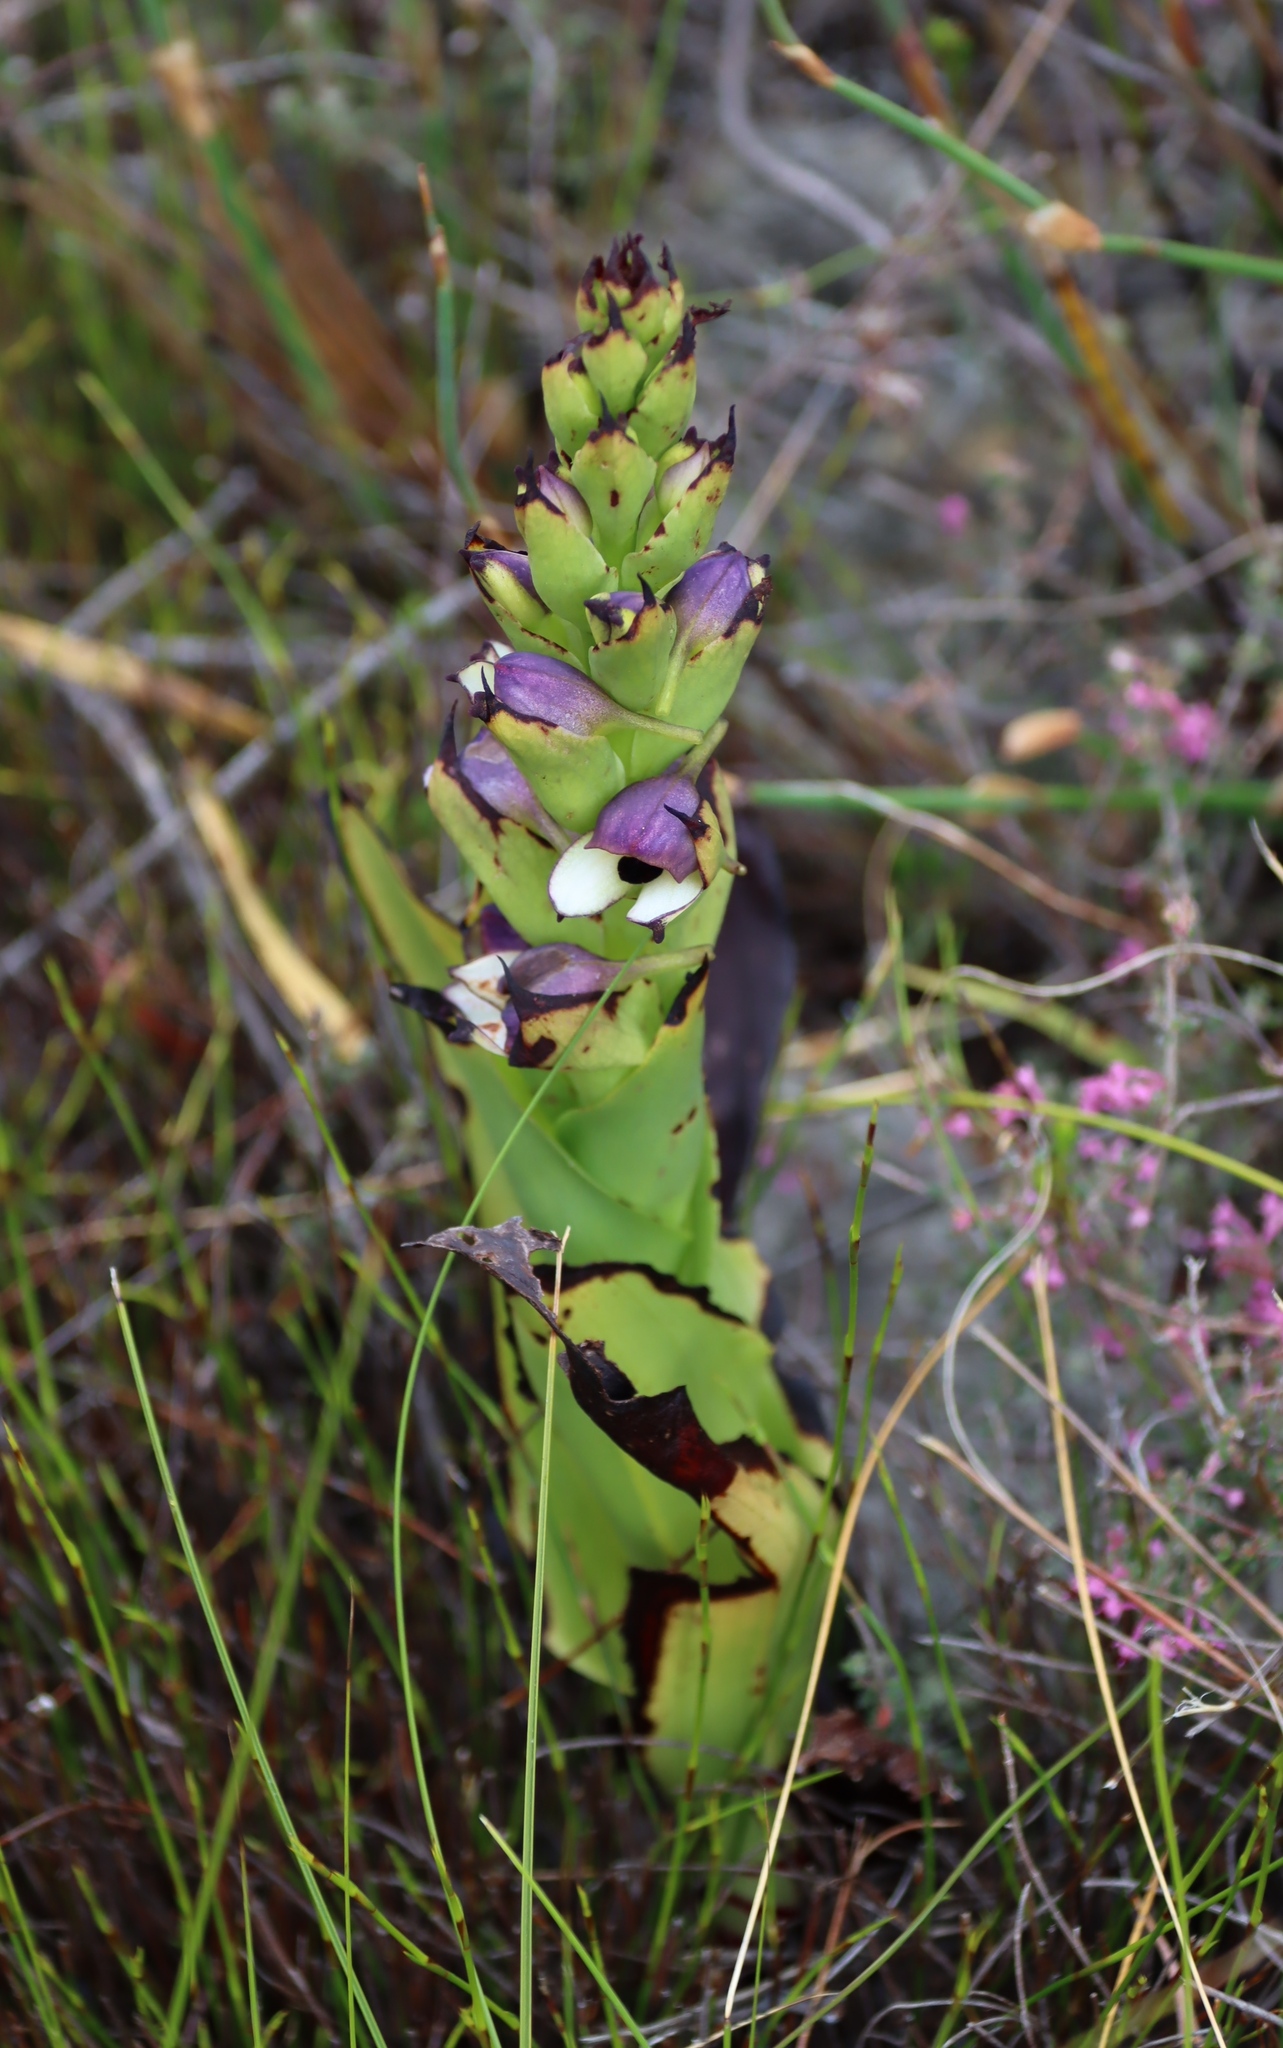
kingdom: Plantae
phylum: Tracheophyta
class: Liliopsida
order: Asparagales
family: Orchidaceae
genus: Disa
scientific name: Disa cornuta
